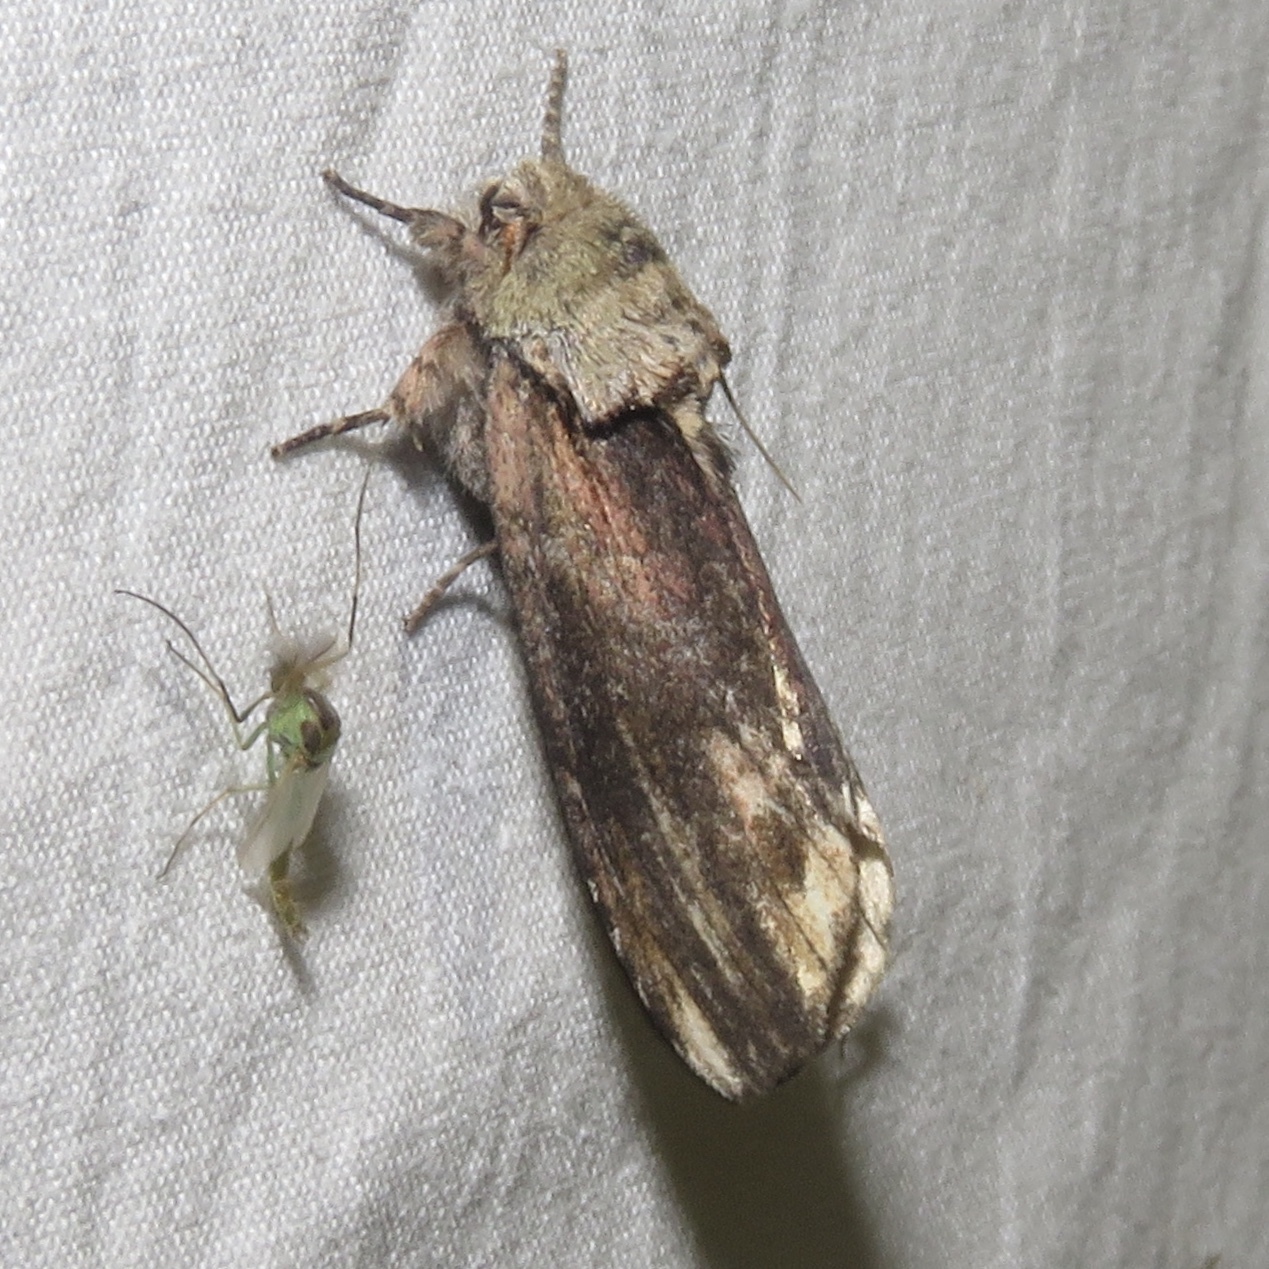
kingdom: Animalia
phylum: Arthropoda
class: Insecta
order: Lepidoptera
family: Notodontidae
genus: Schizura
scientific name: Schizura
